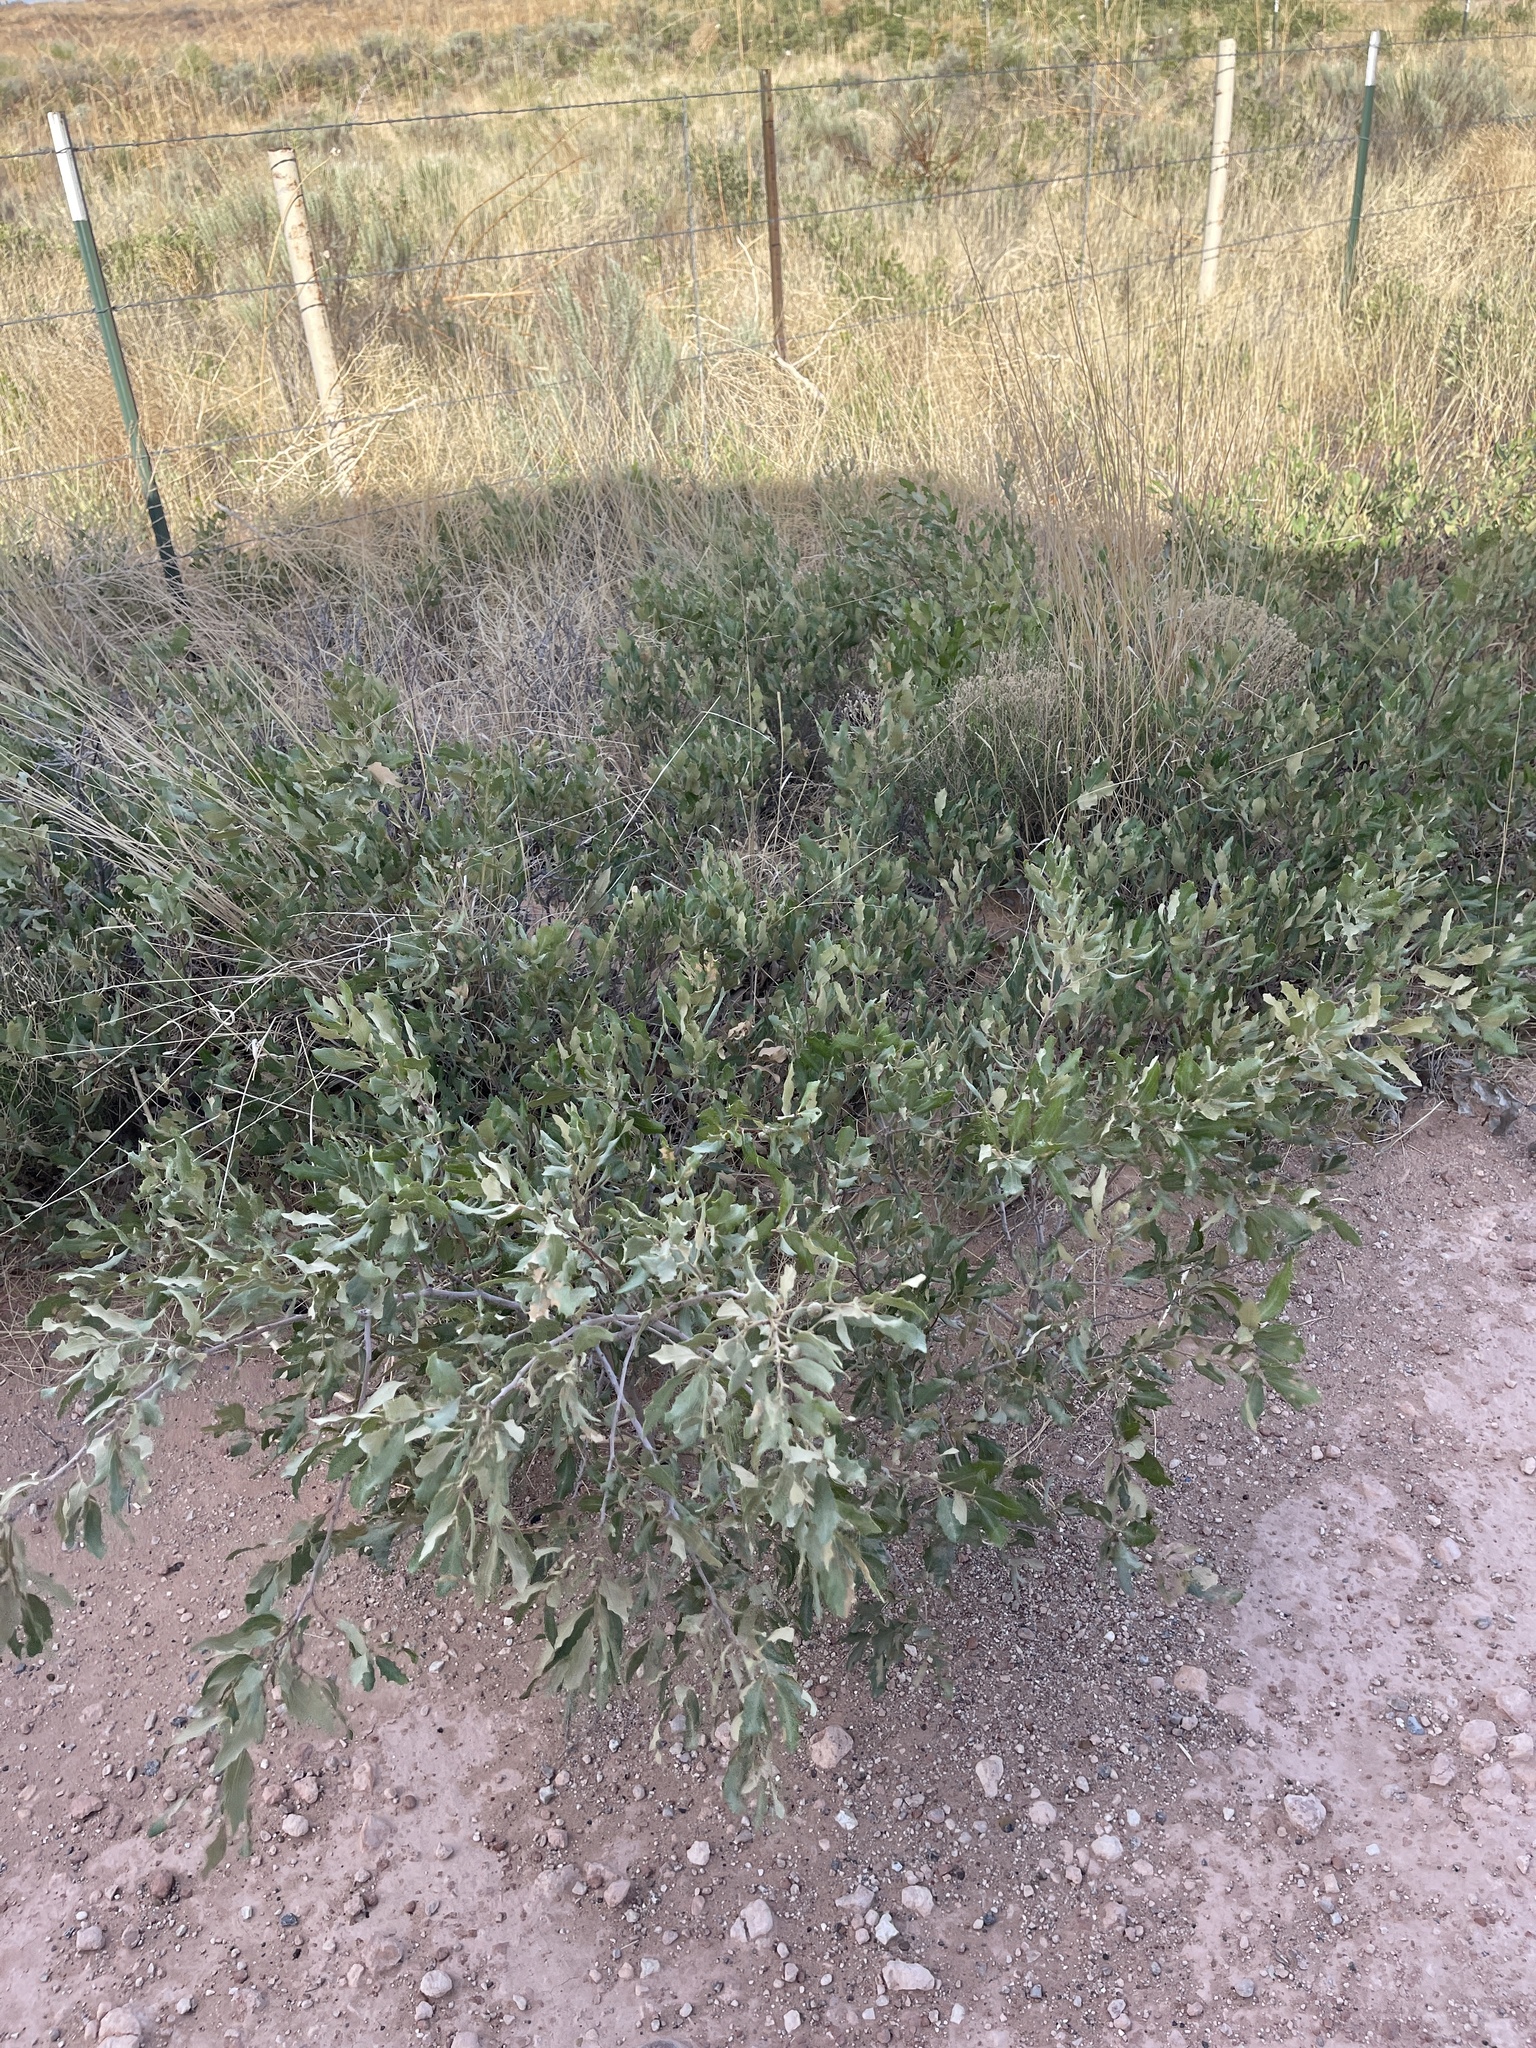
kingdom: Plantae
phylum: Tracheophyta
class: Magnoliopsida
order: Fagales
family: Fagaceae
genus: Quercus
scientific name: Quercus havardii
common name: Shinnery oak
